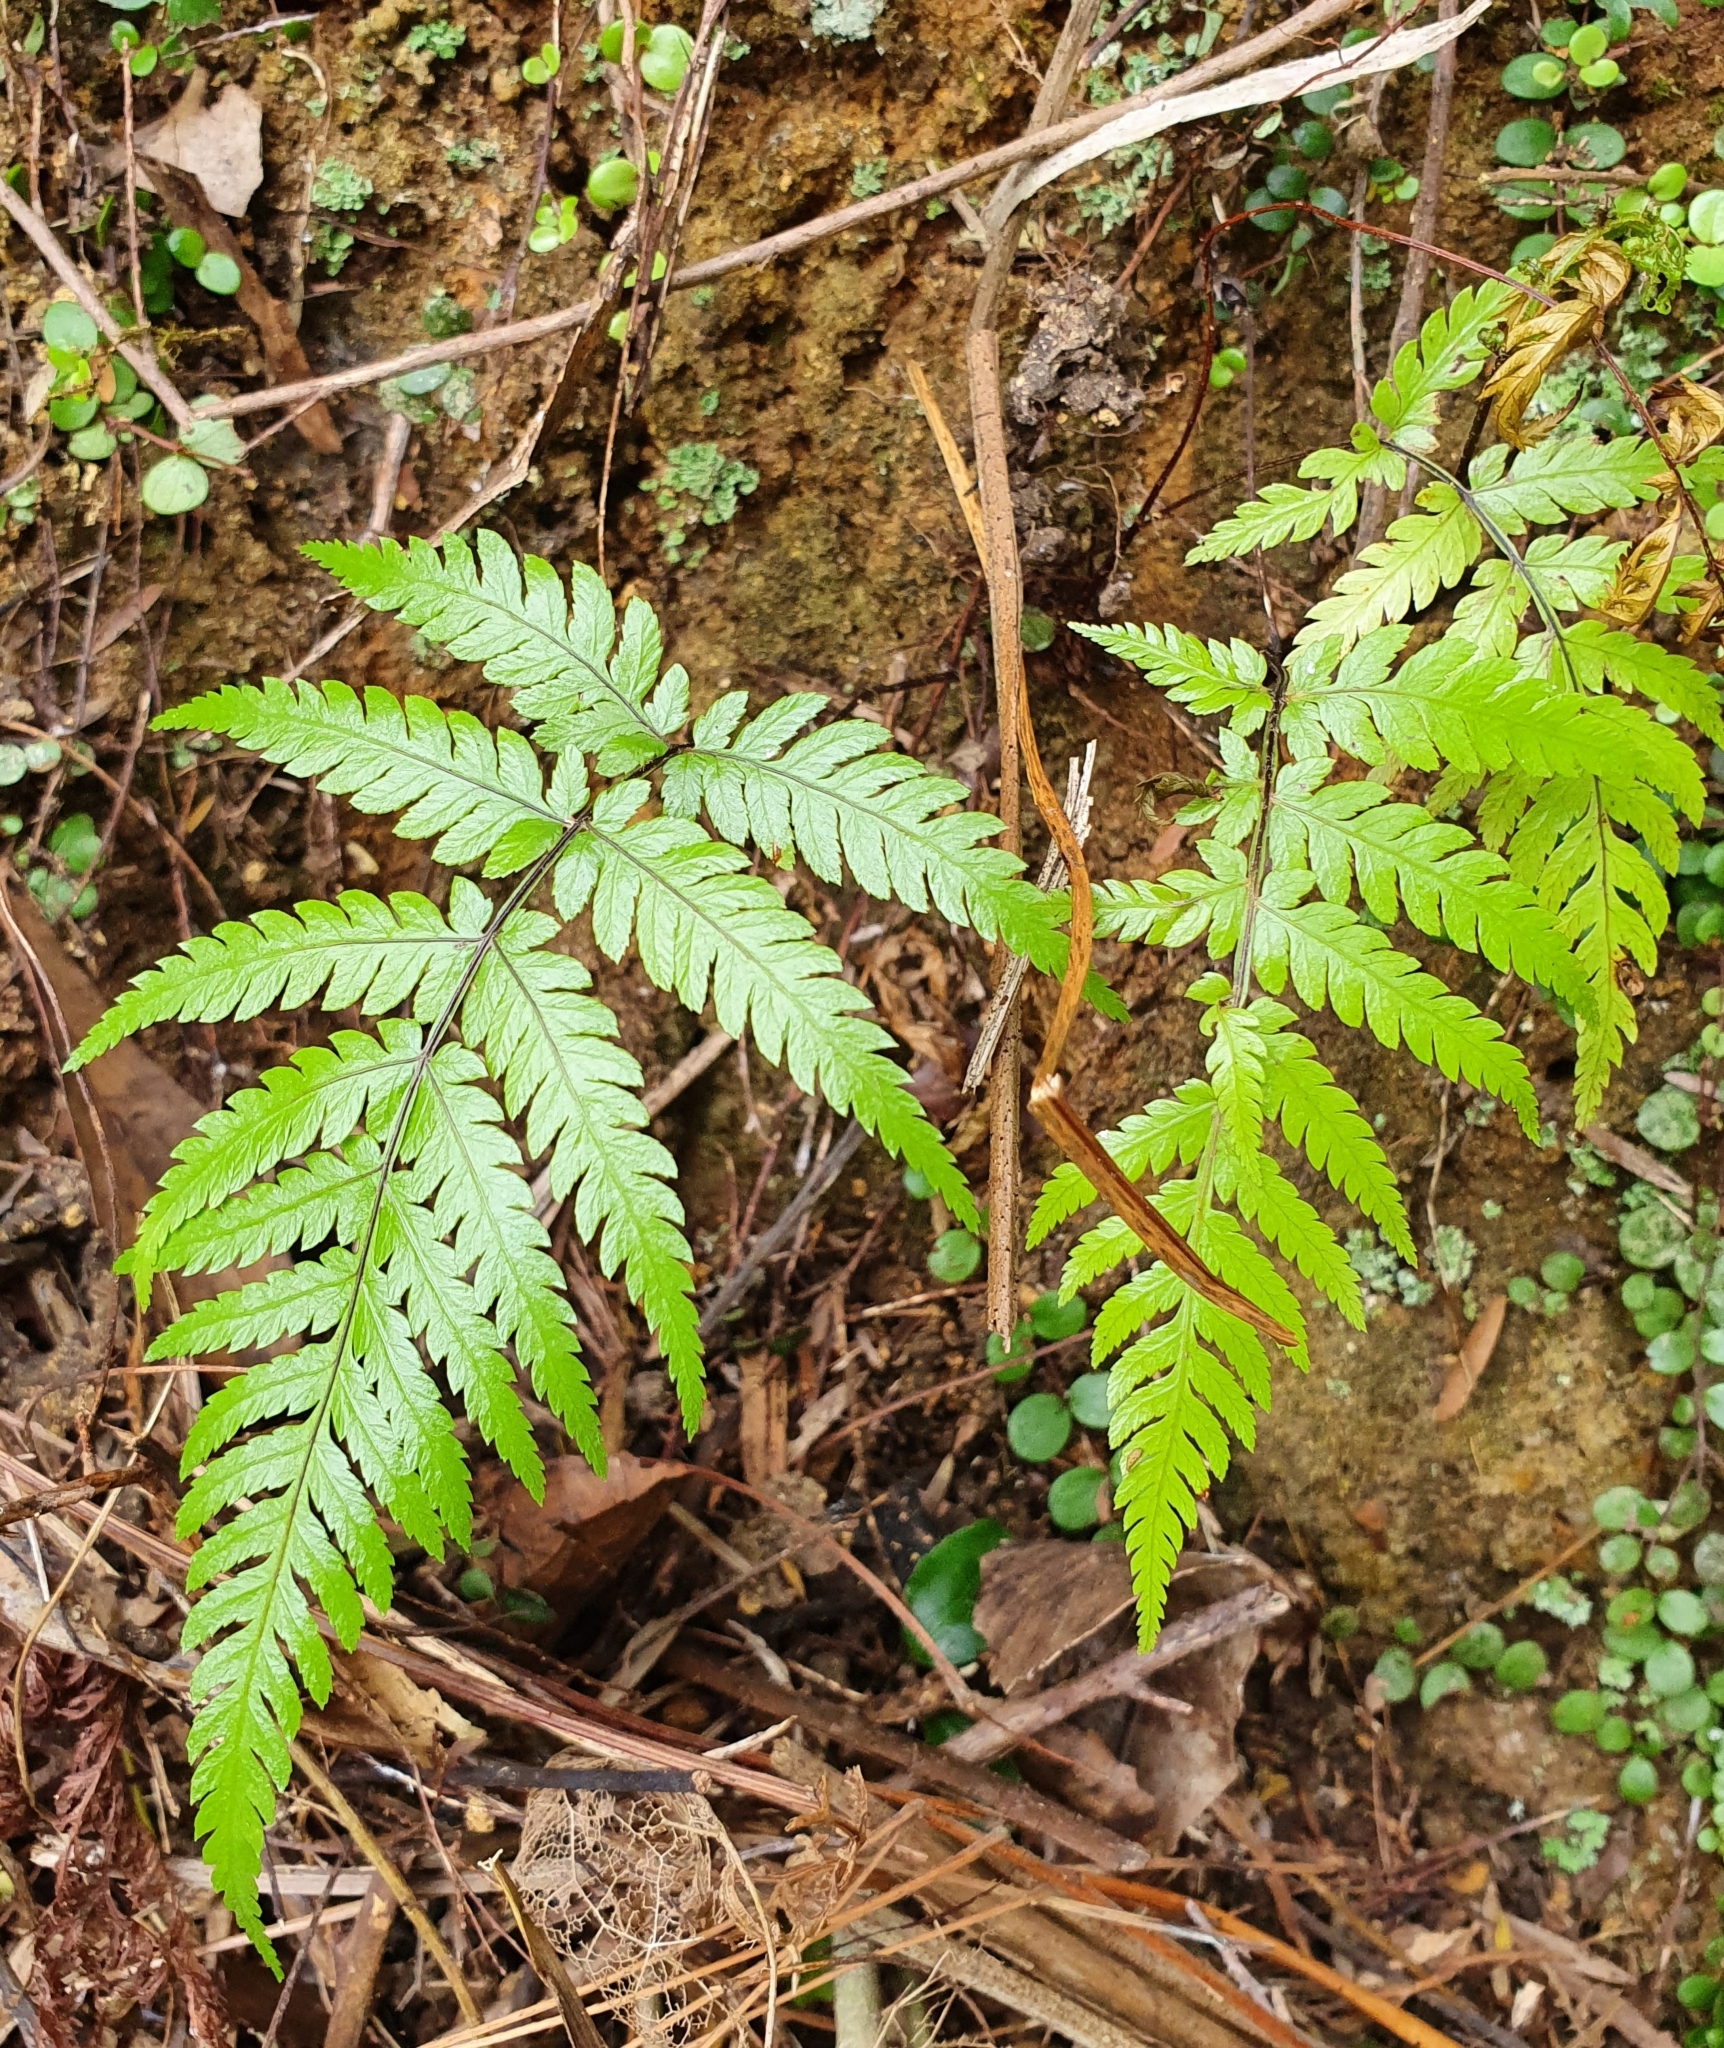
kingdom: Plantae
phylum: Tracheophyta
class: Polypodiopsida
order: Cyatheales
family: Cyatheaceae
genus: Alsophila
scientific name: Alsophila dealbata
